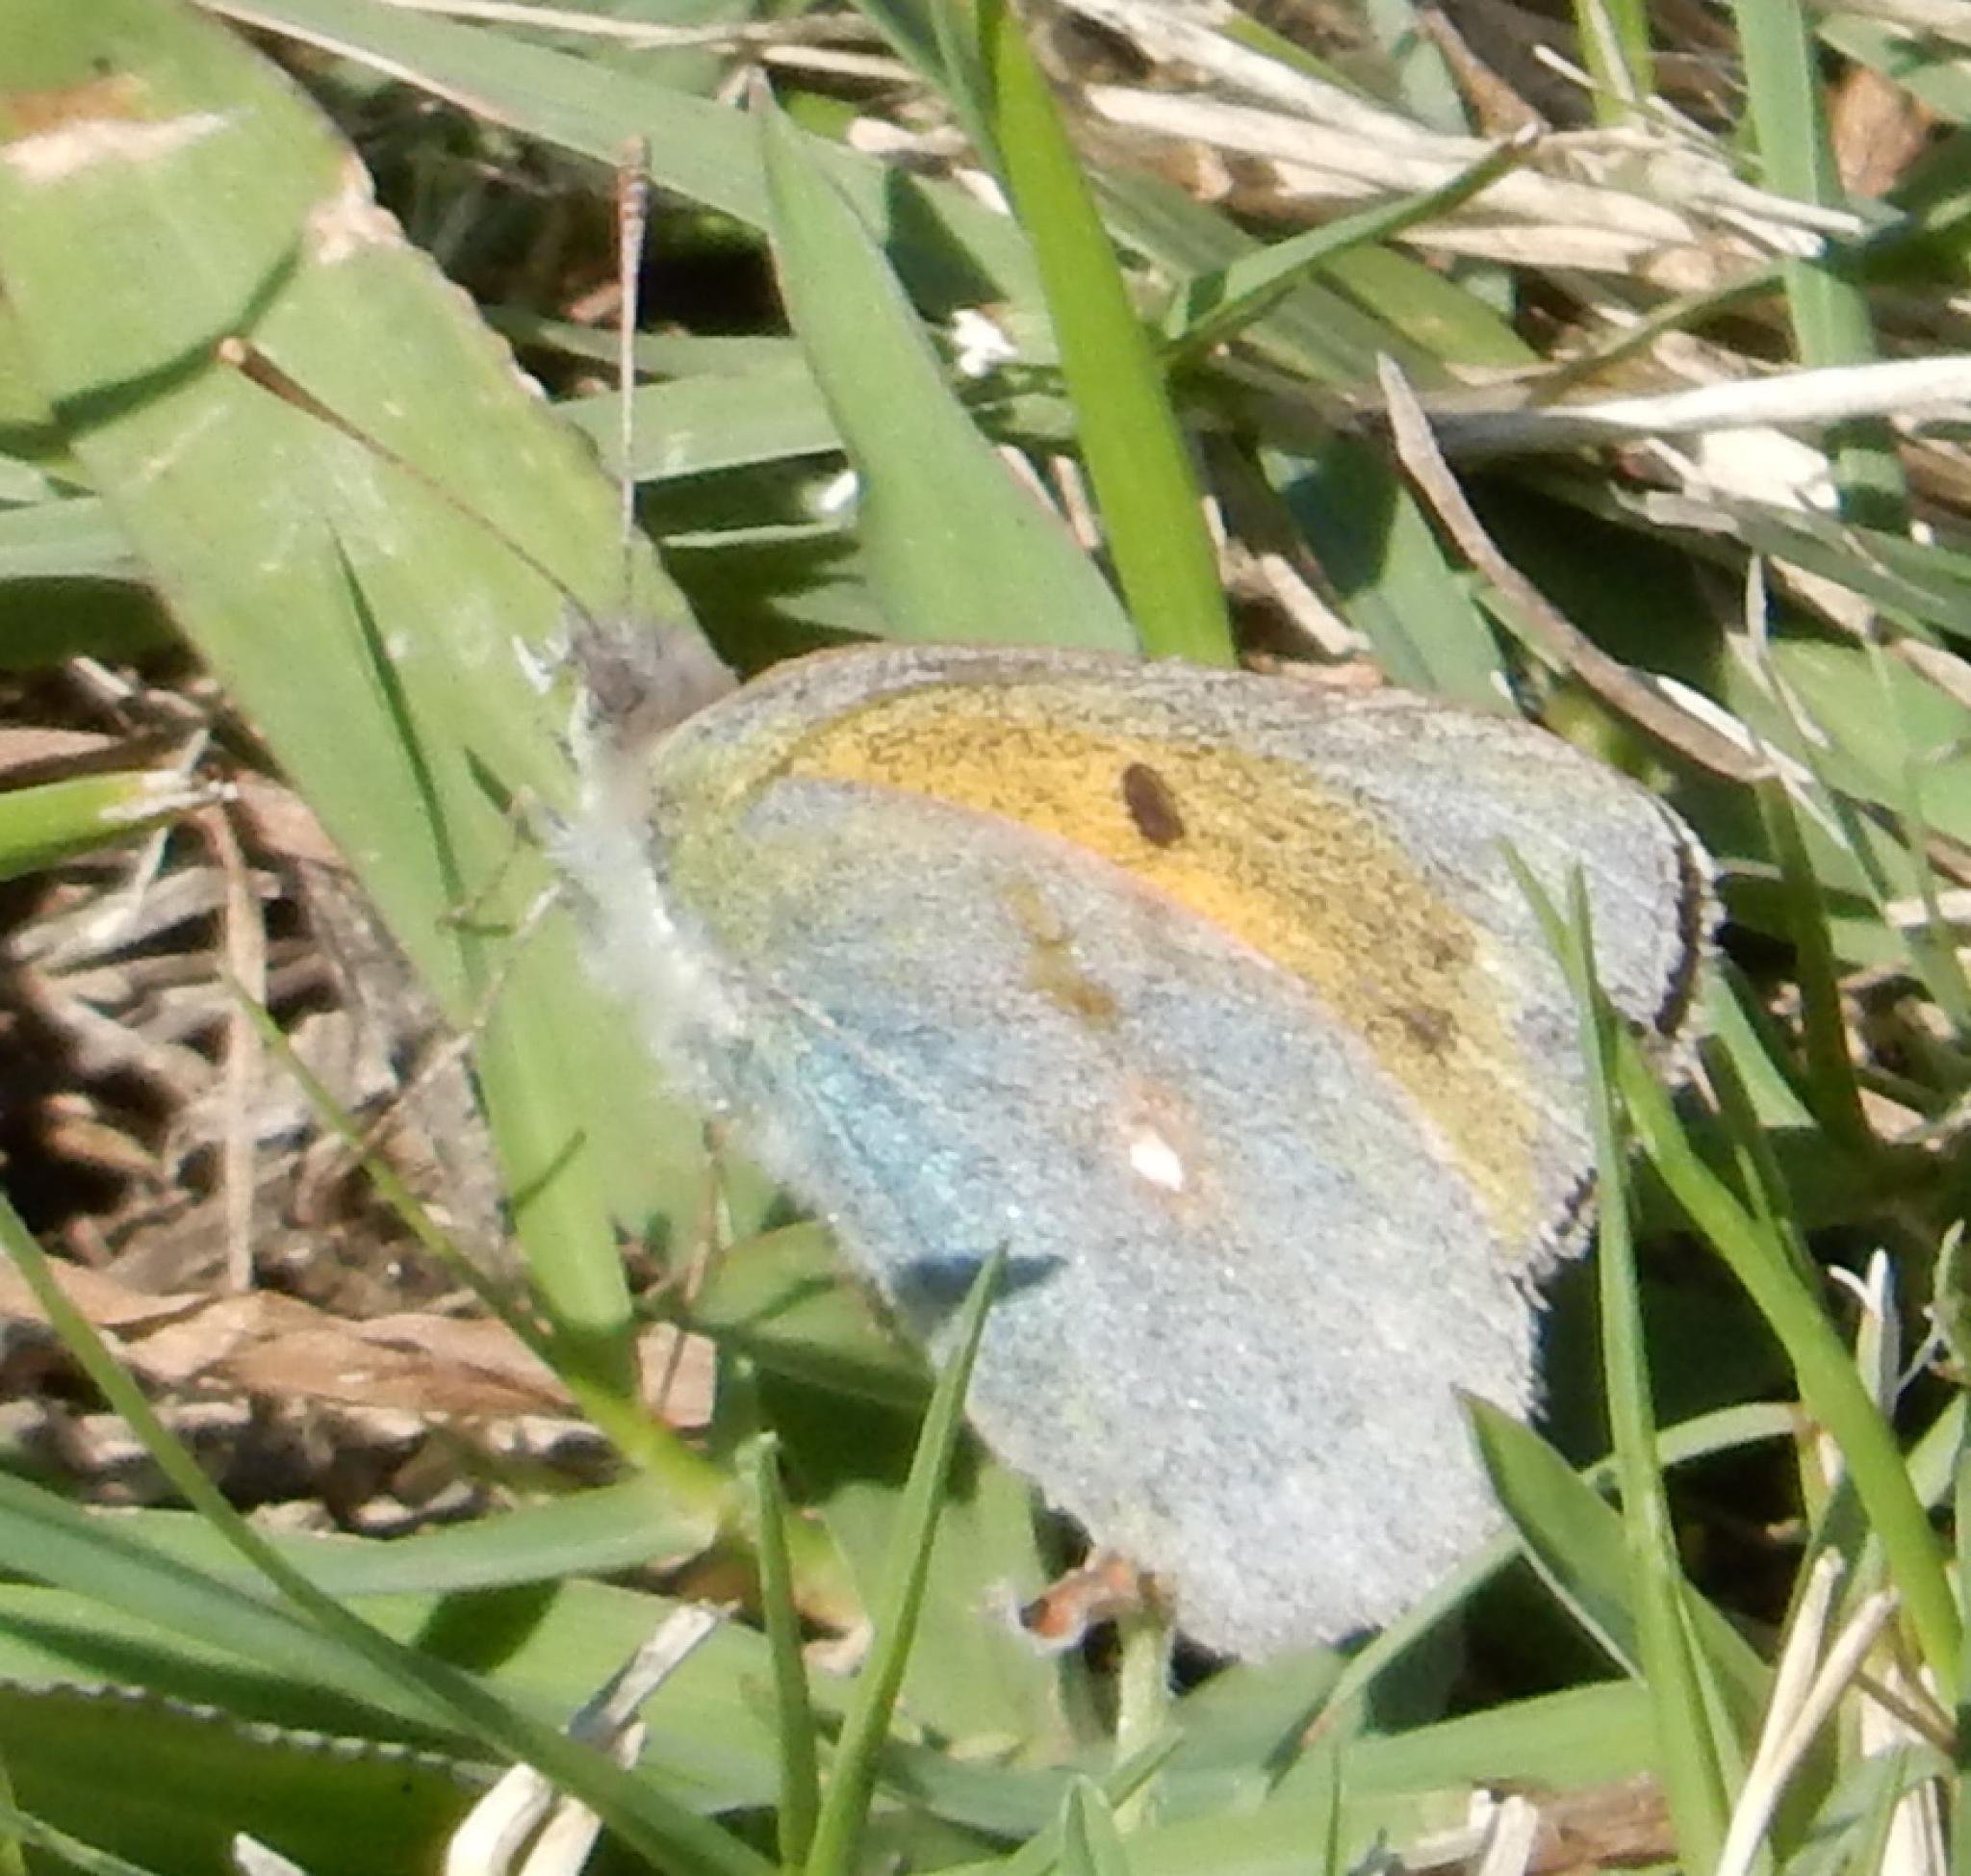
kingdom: Animalia
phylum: Arthropoda
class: Insecta
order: Lepidoptera
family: Pieridae
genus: Colias
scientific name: Colias electo
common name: African clouded yellow
